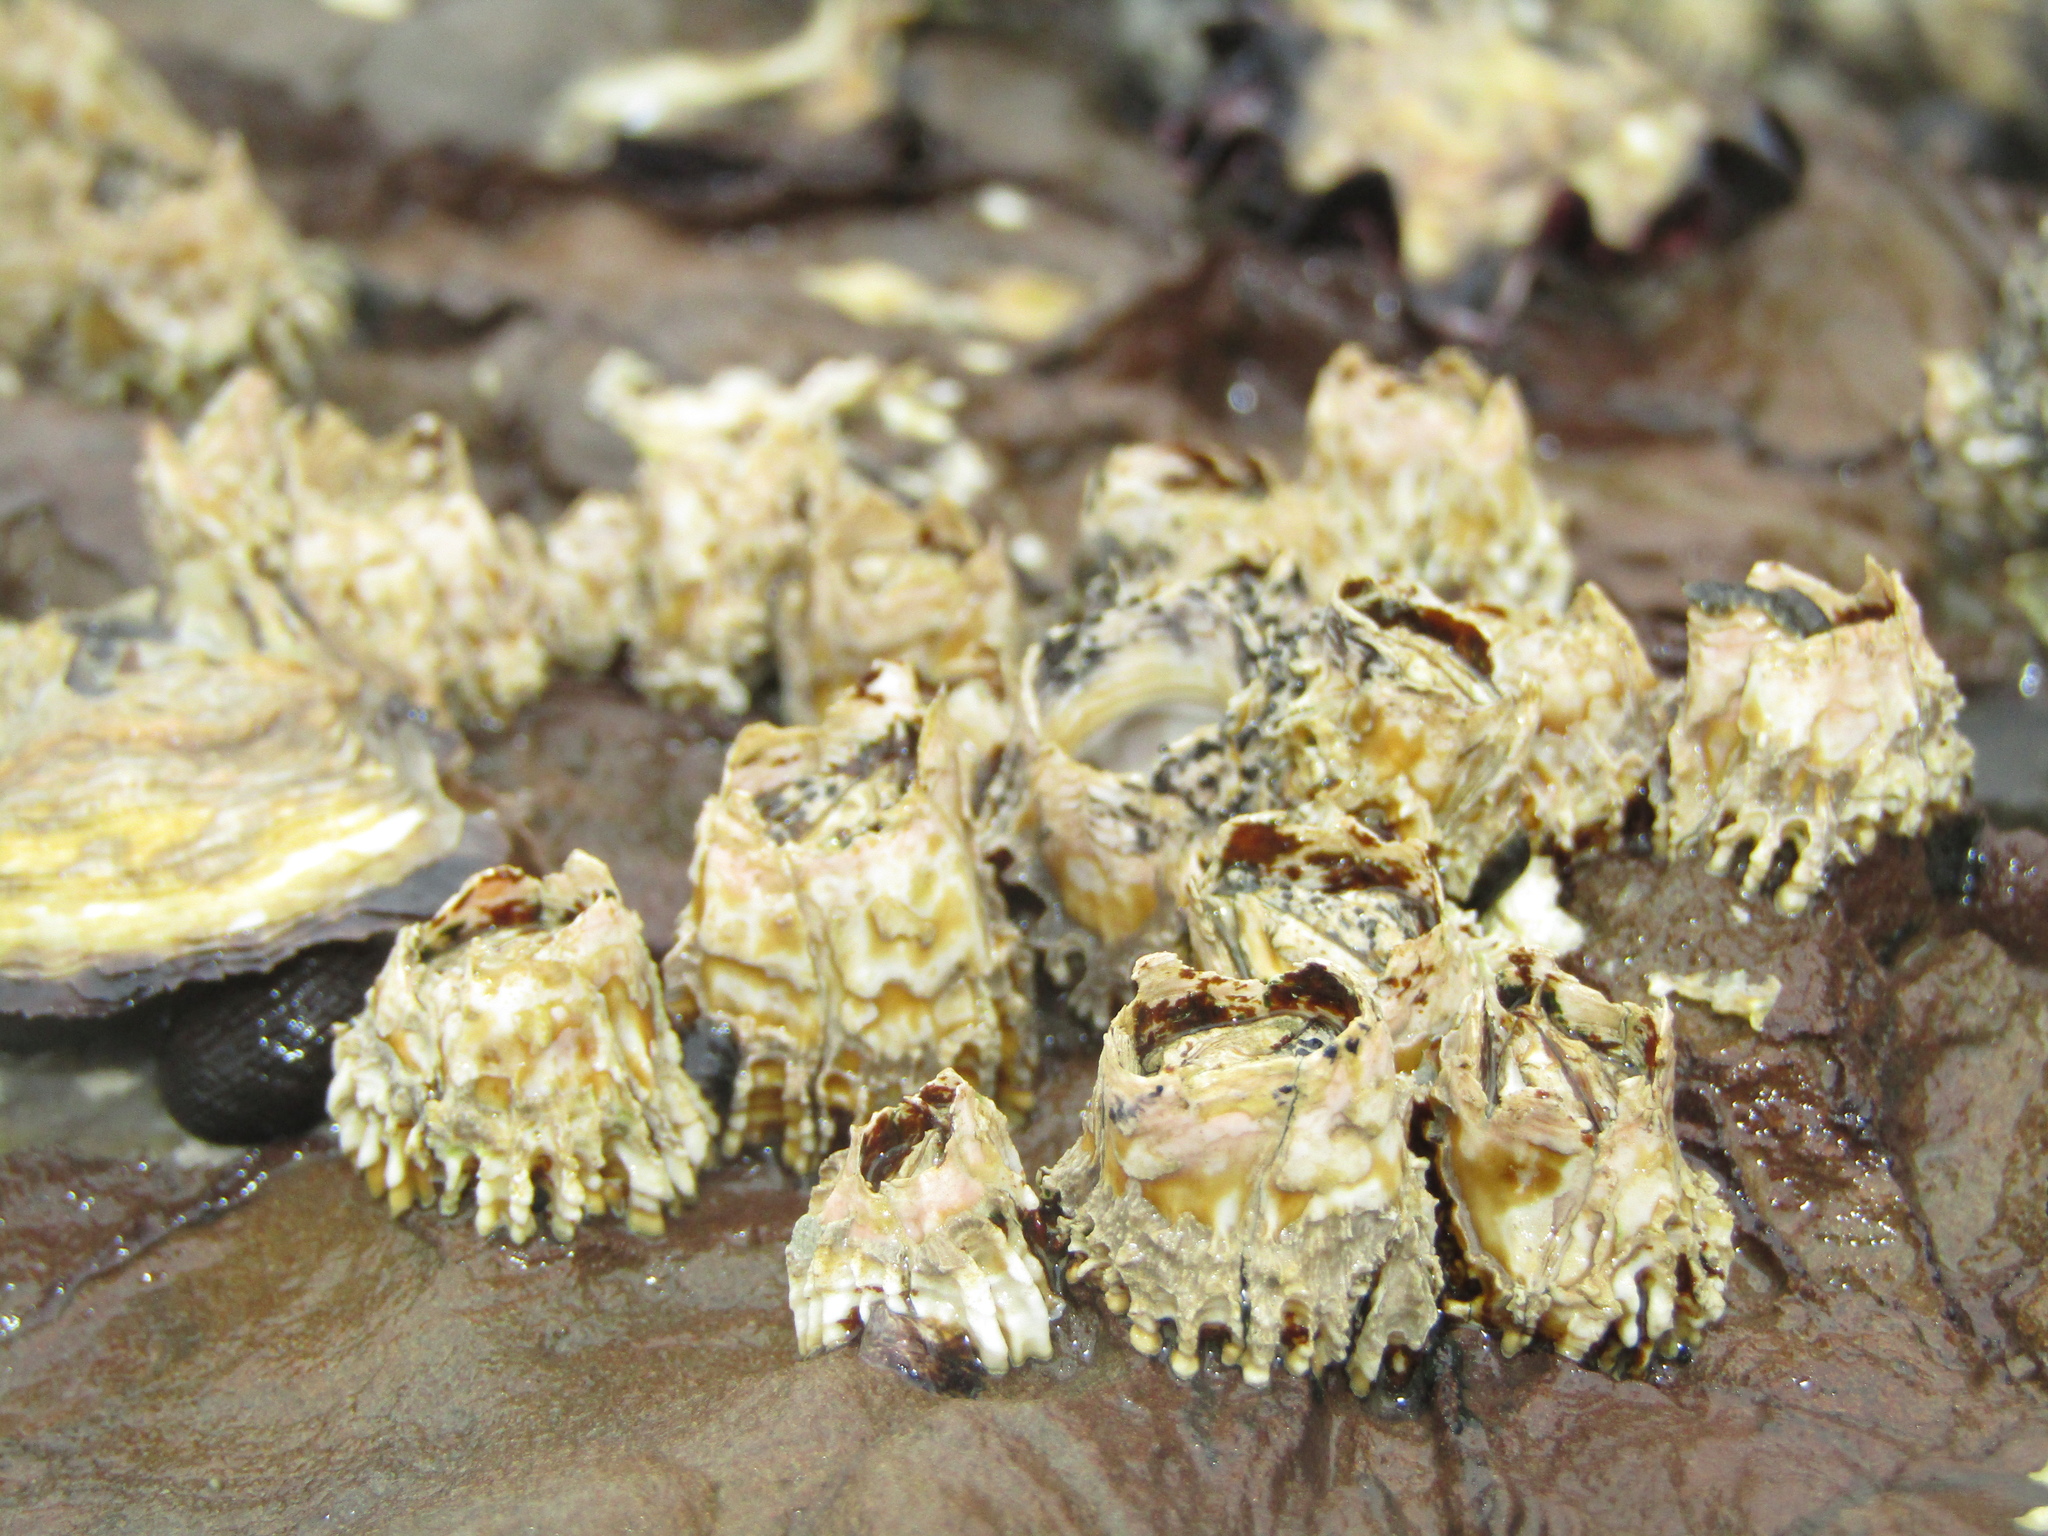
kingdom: Animalia
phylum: Arthropoda
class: Maxillopoda
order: Sessilia
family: Tetraclitidae
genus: Epopella
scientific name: Epopella plicata
